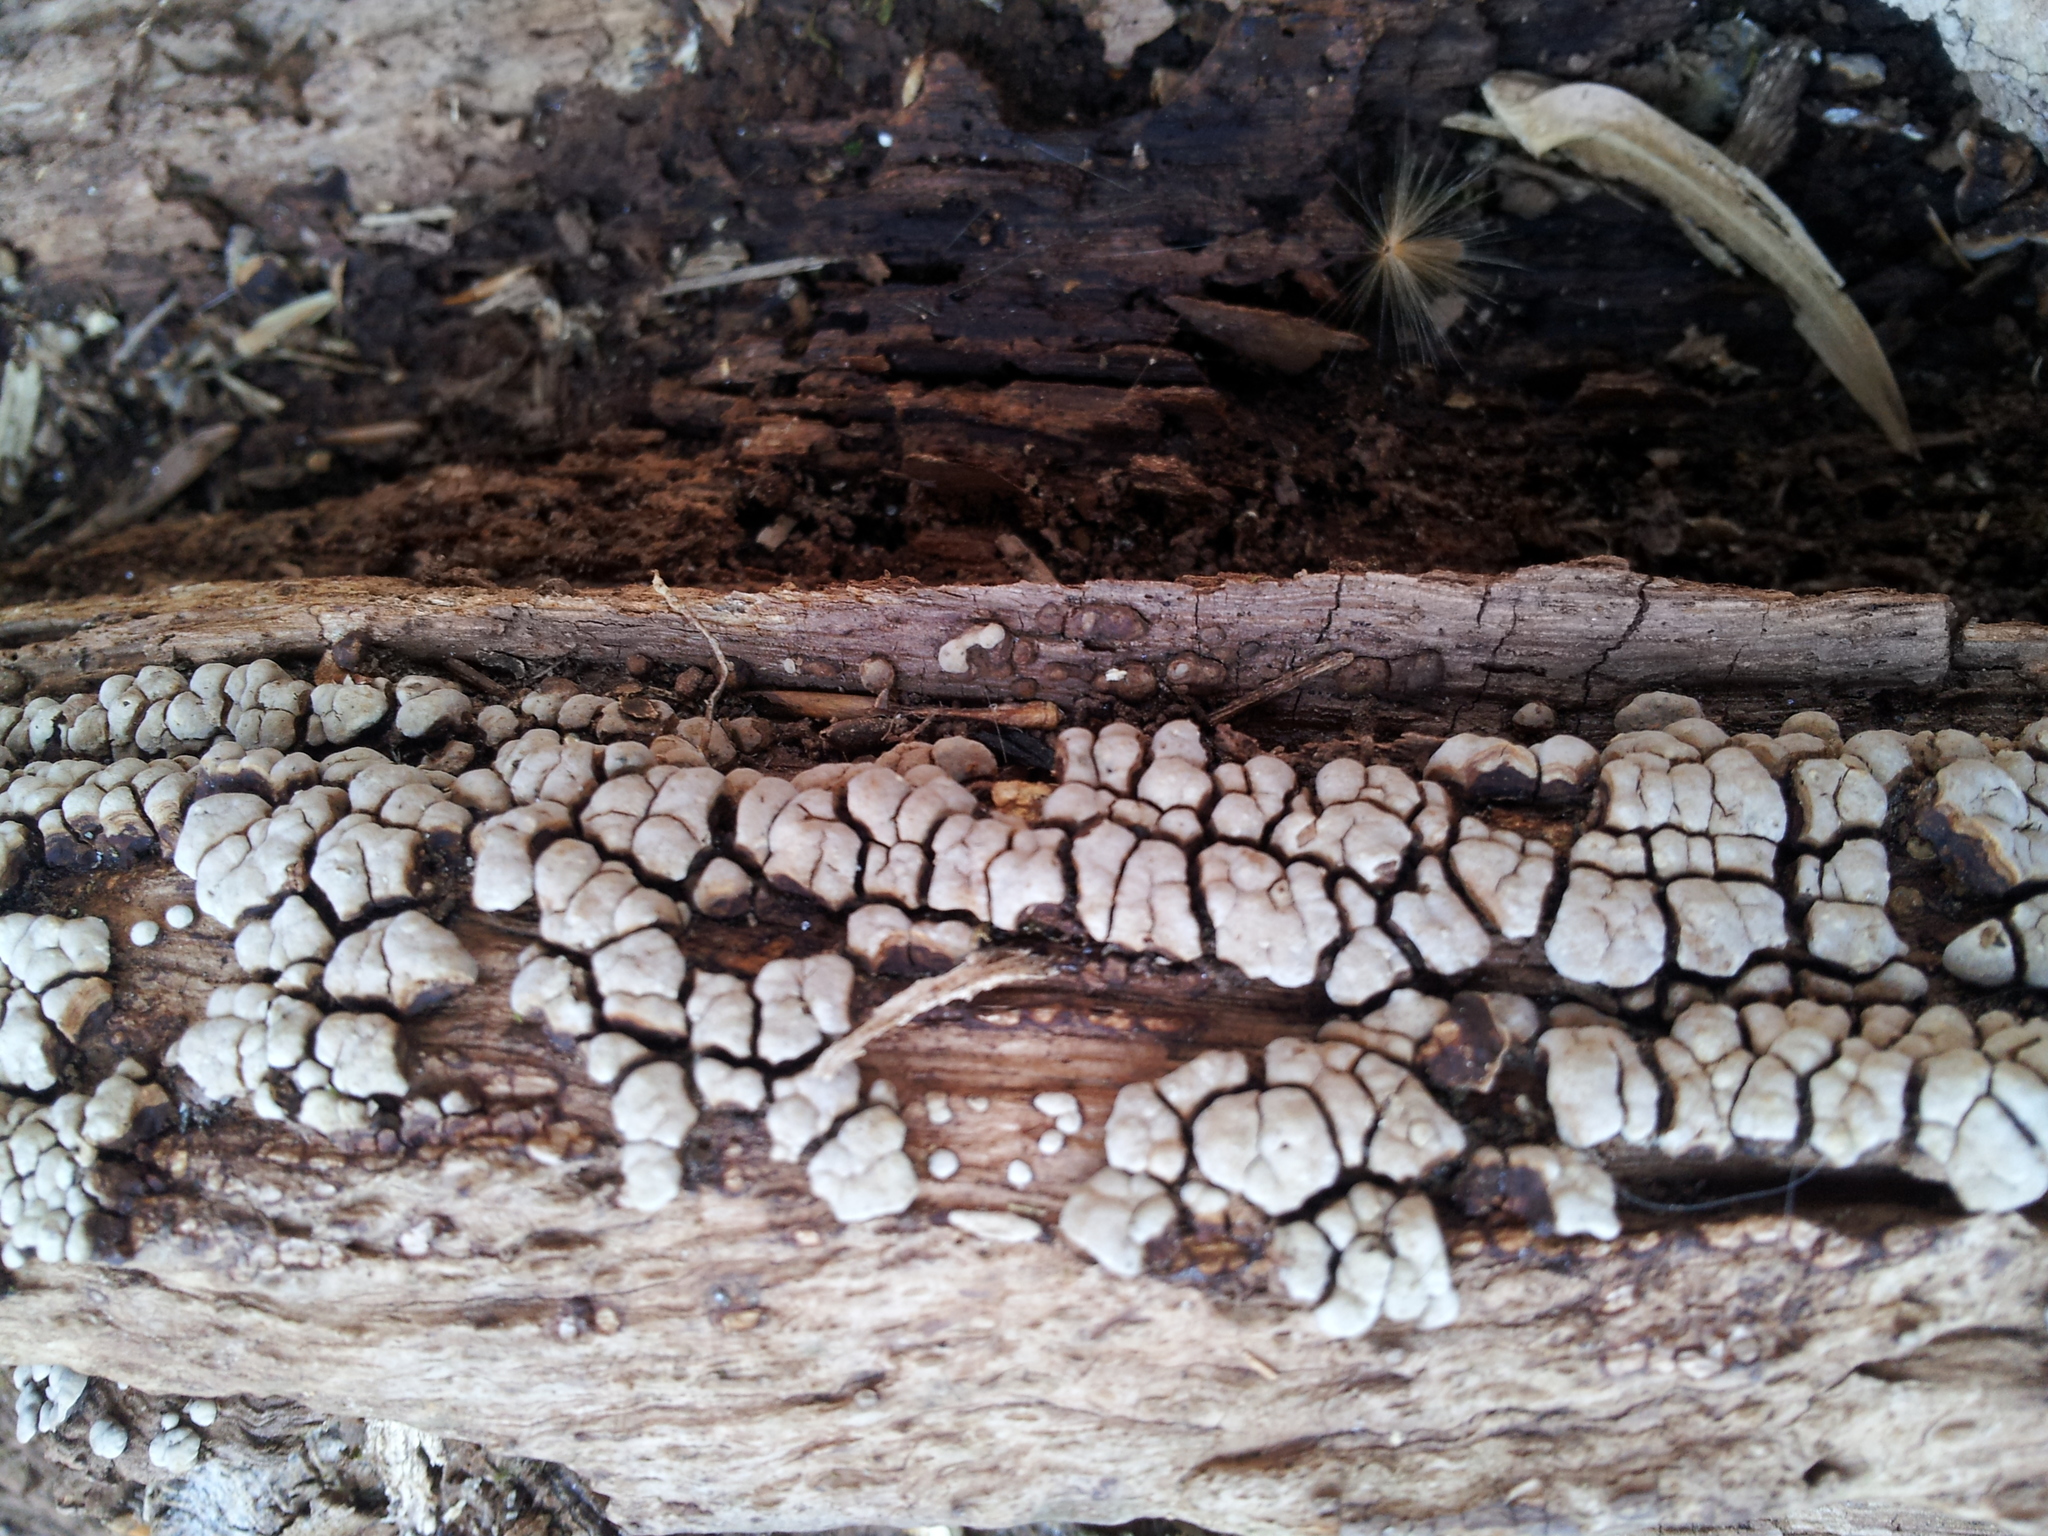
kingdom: Fungi
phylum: Basidiomycota
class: Agaricomycetes
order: Russulales
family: Stereaceae
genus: Xylobolus
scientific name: Xylobolus frustulatus
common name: Ceramic parchment
